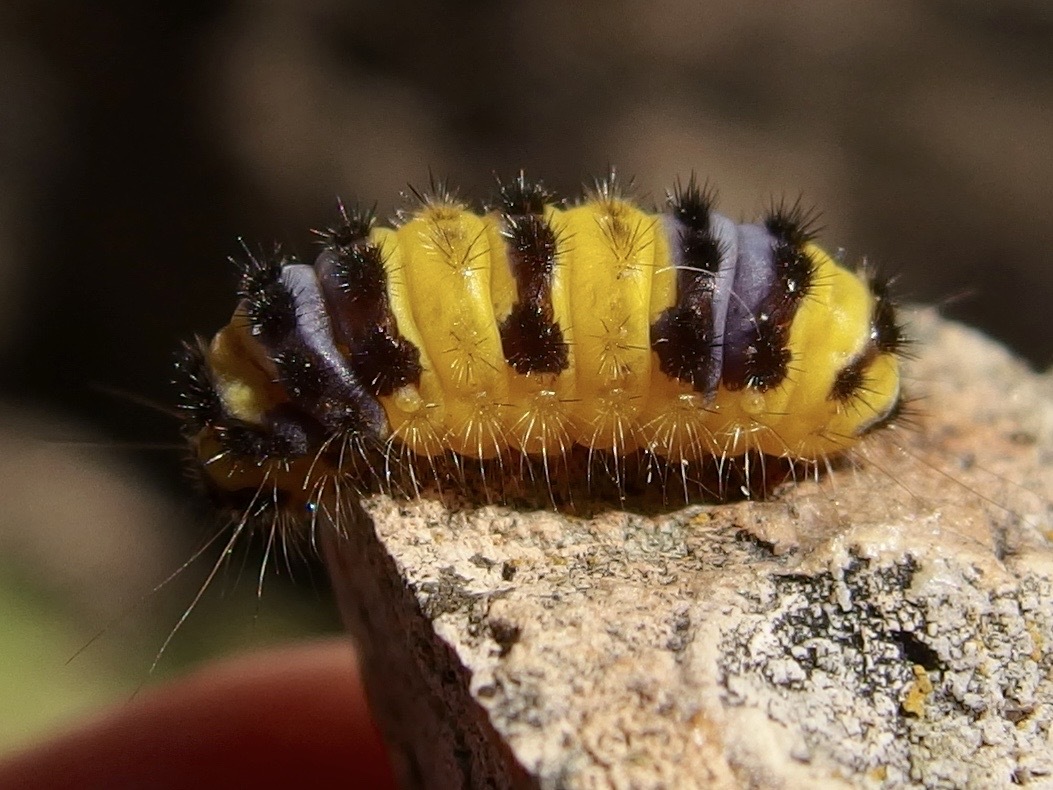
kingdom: Animalia
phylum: Arthropoda
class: Insecta
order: Lepidoptera
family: Zygaenidae
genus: Harrisina
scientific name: Harrisina metallica
